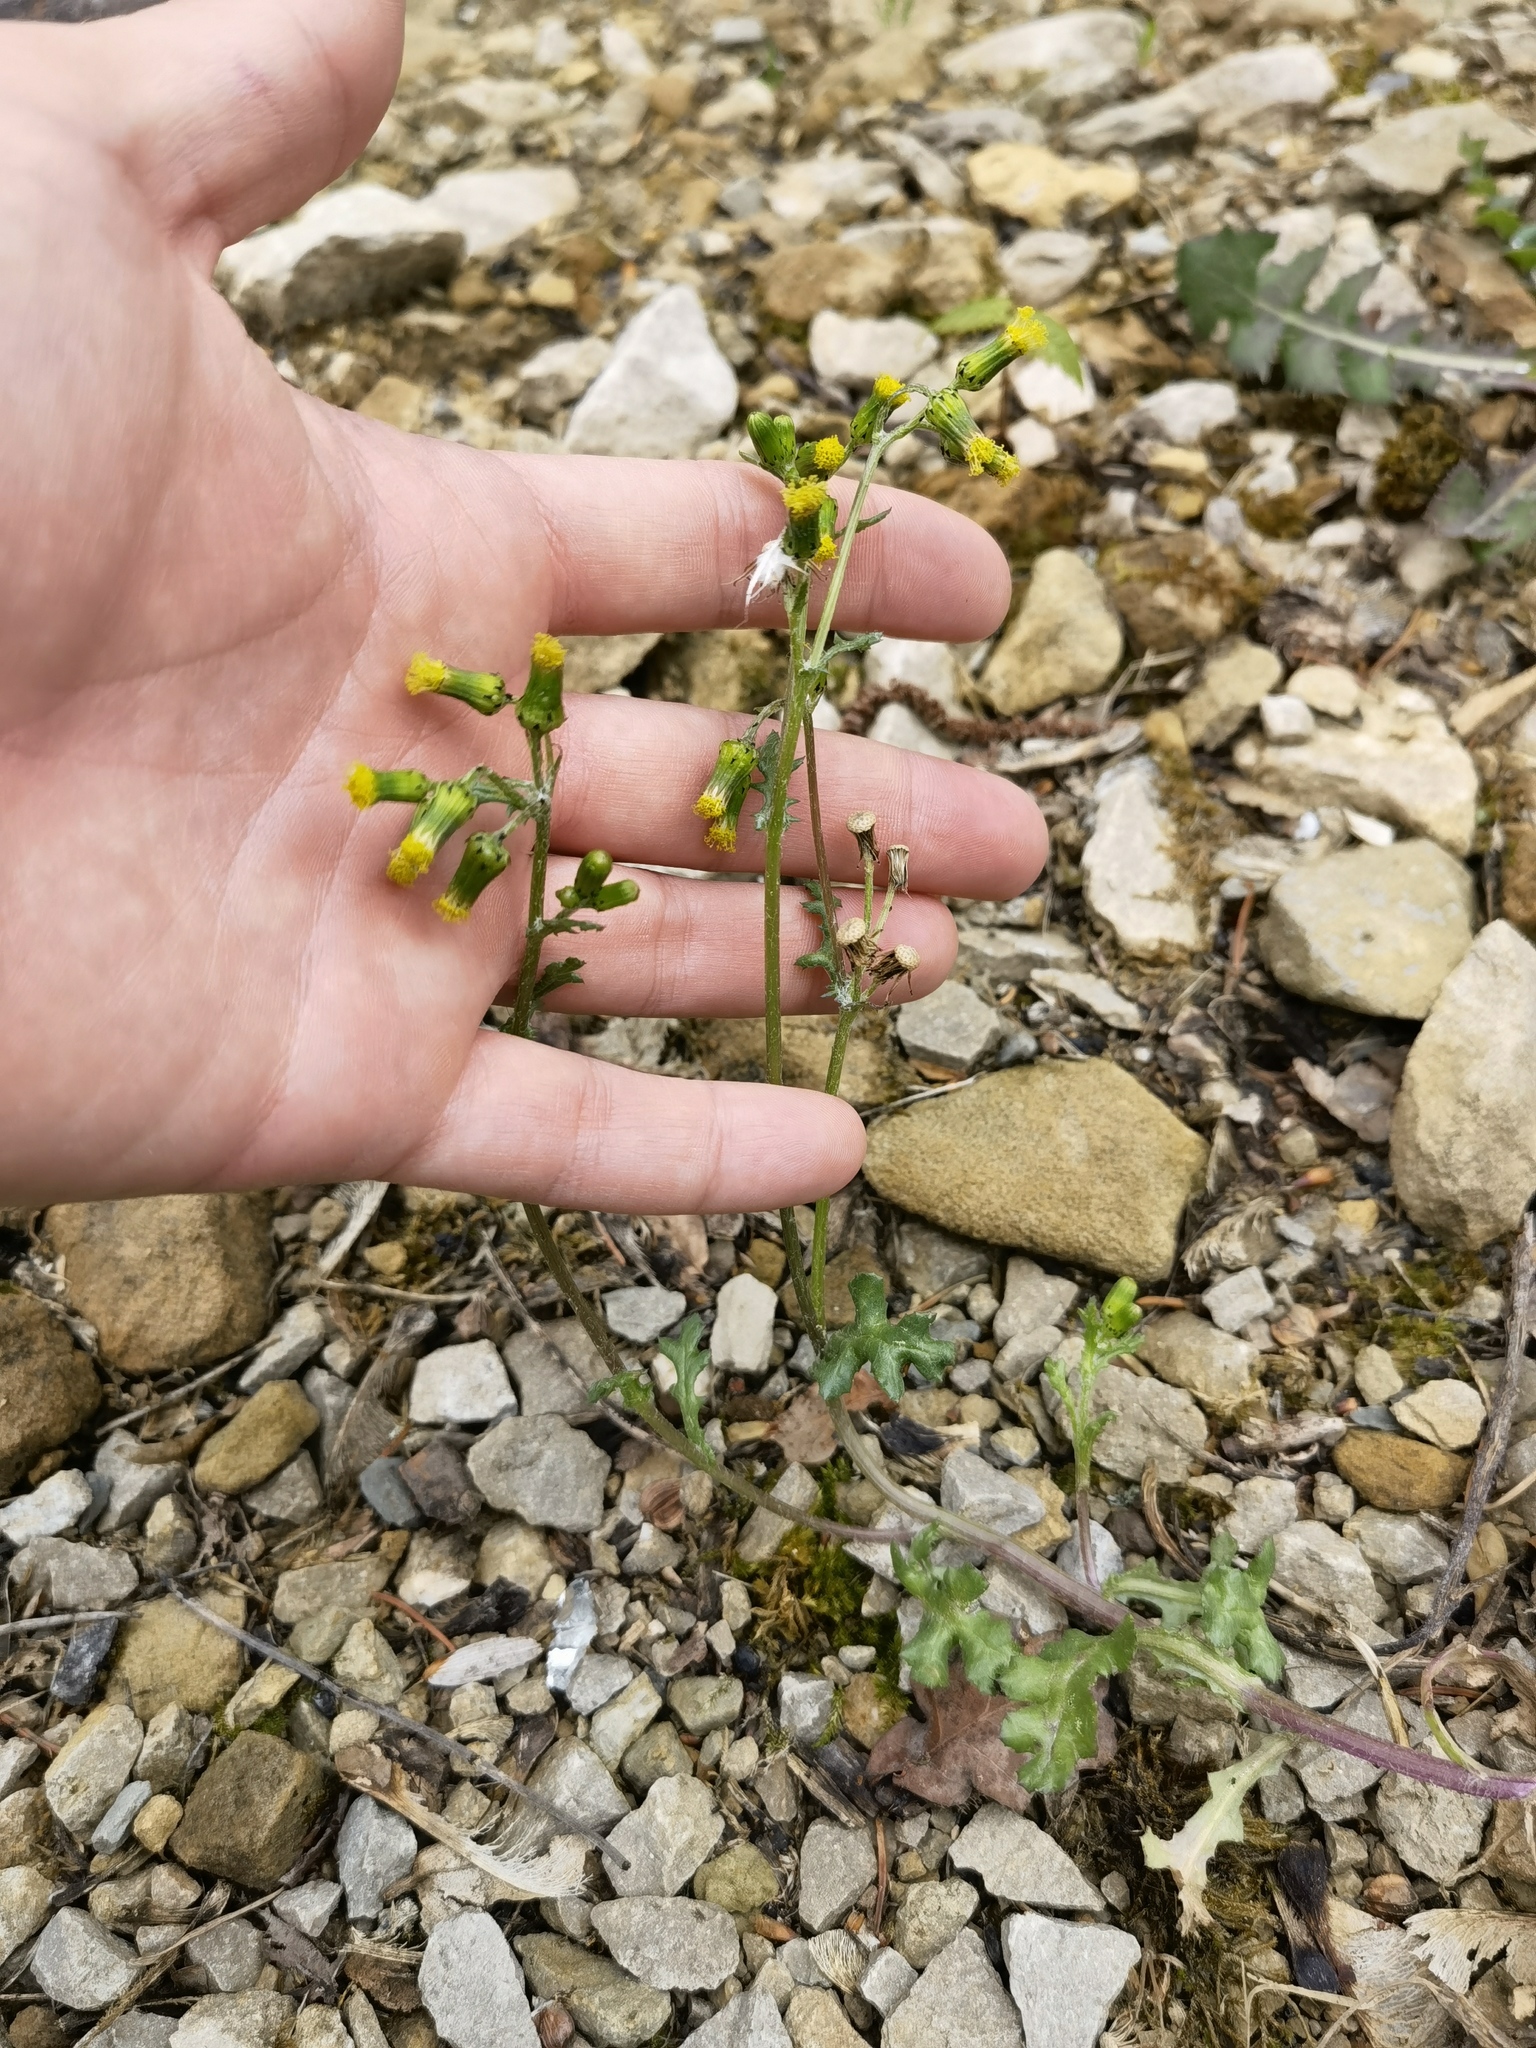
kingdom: Plantae
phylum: Tracheophyta
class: Magnoliopsida
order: Asterales
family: Asteraceae
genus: Senecio
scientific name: Senecio vulgaris
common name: Old-man-in-the-spring
